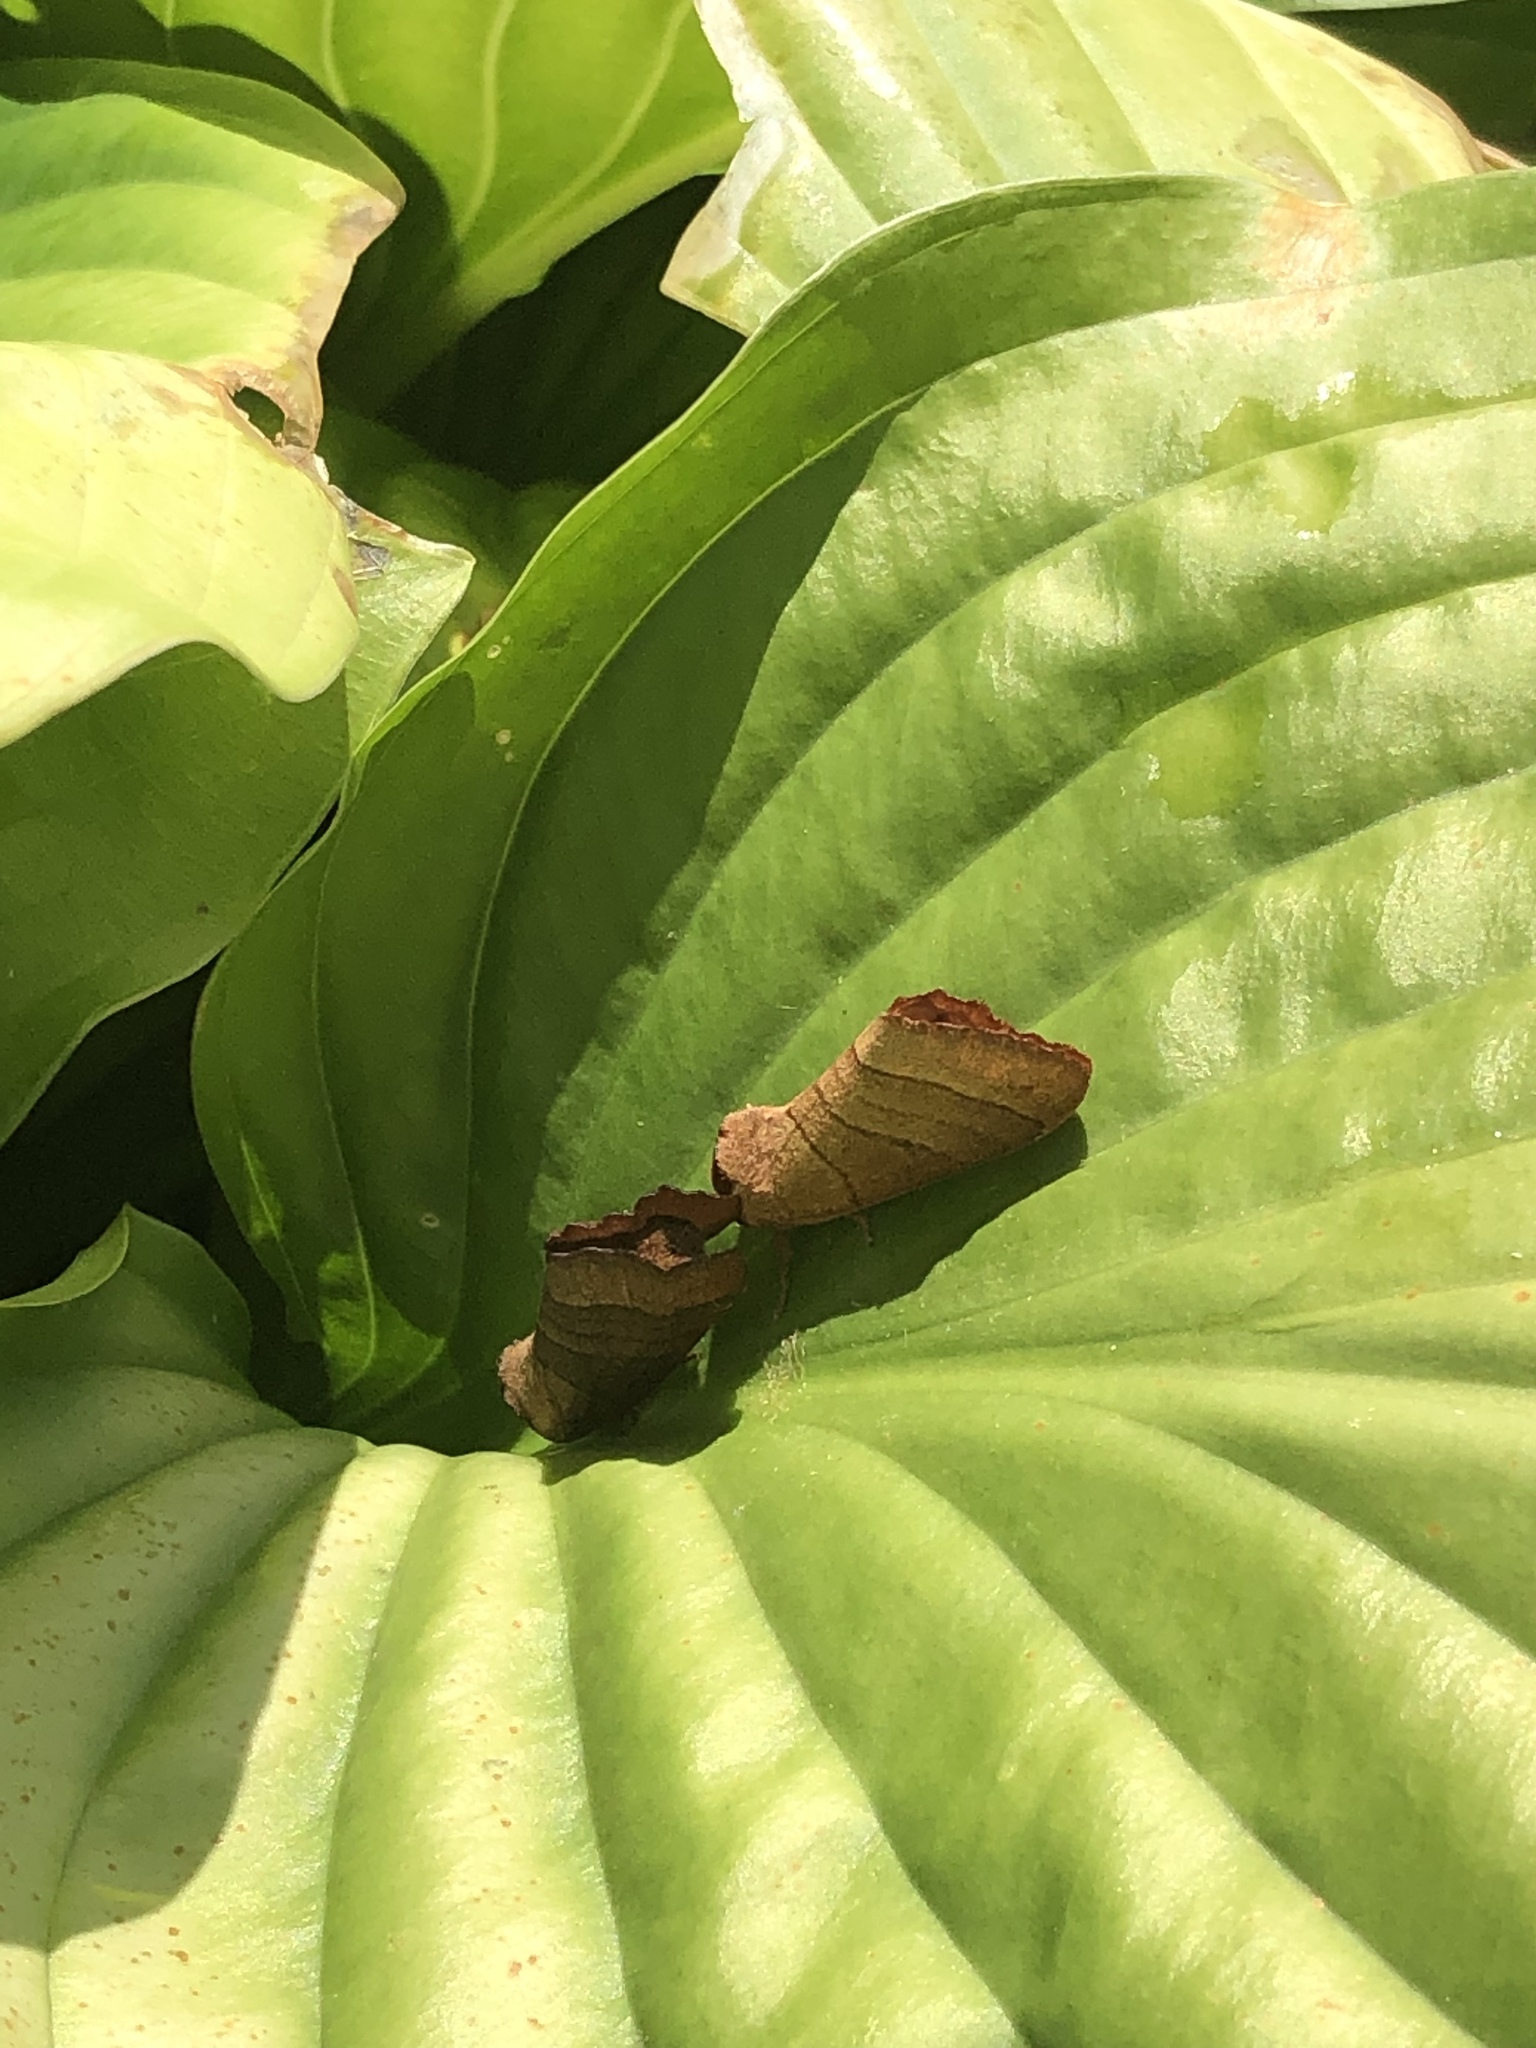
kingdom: Animalia
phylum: Arthropoda
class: Insecta
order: Lepidoptera
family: Notodontidae
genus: Datana
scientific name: Datana ministra
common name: Yellow-necked caterpillar moth
